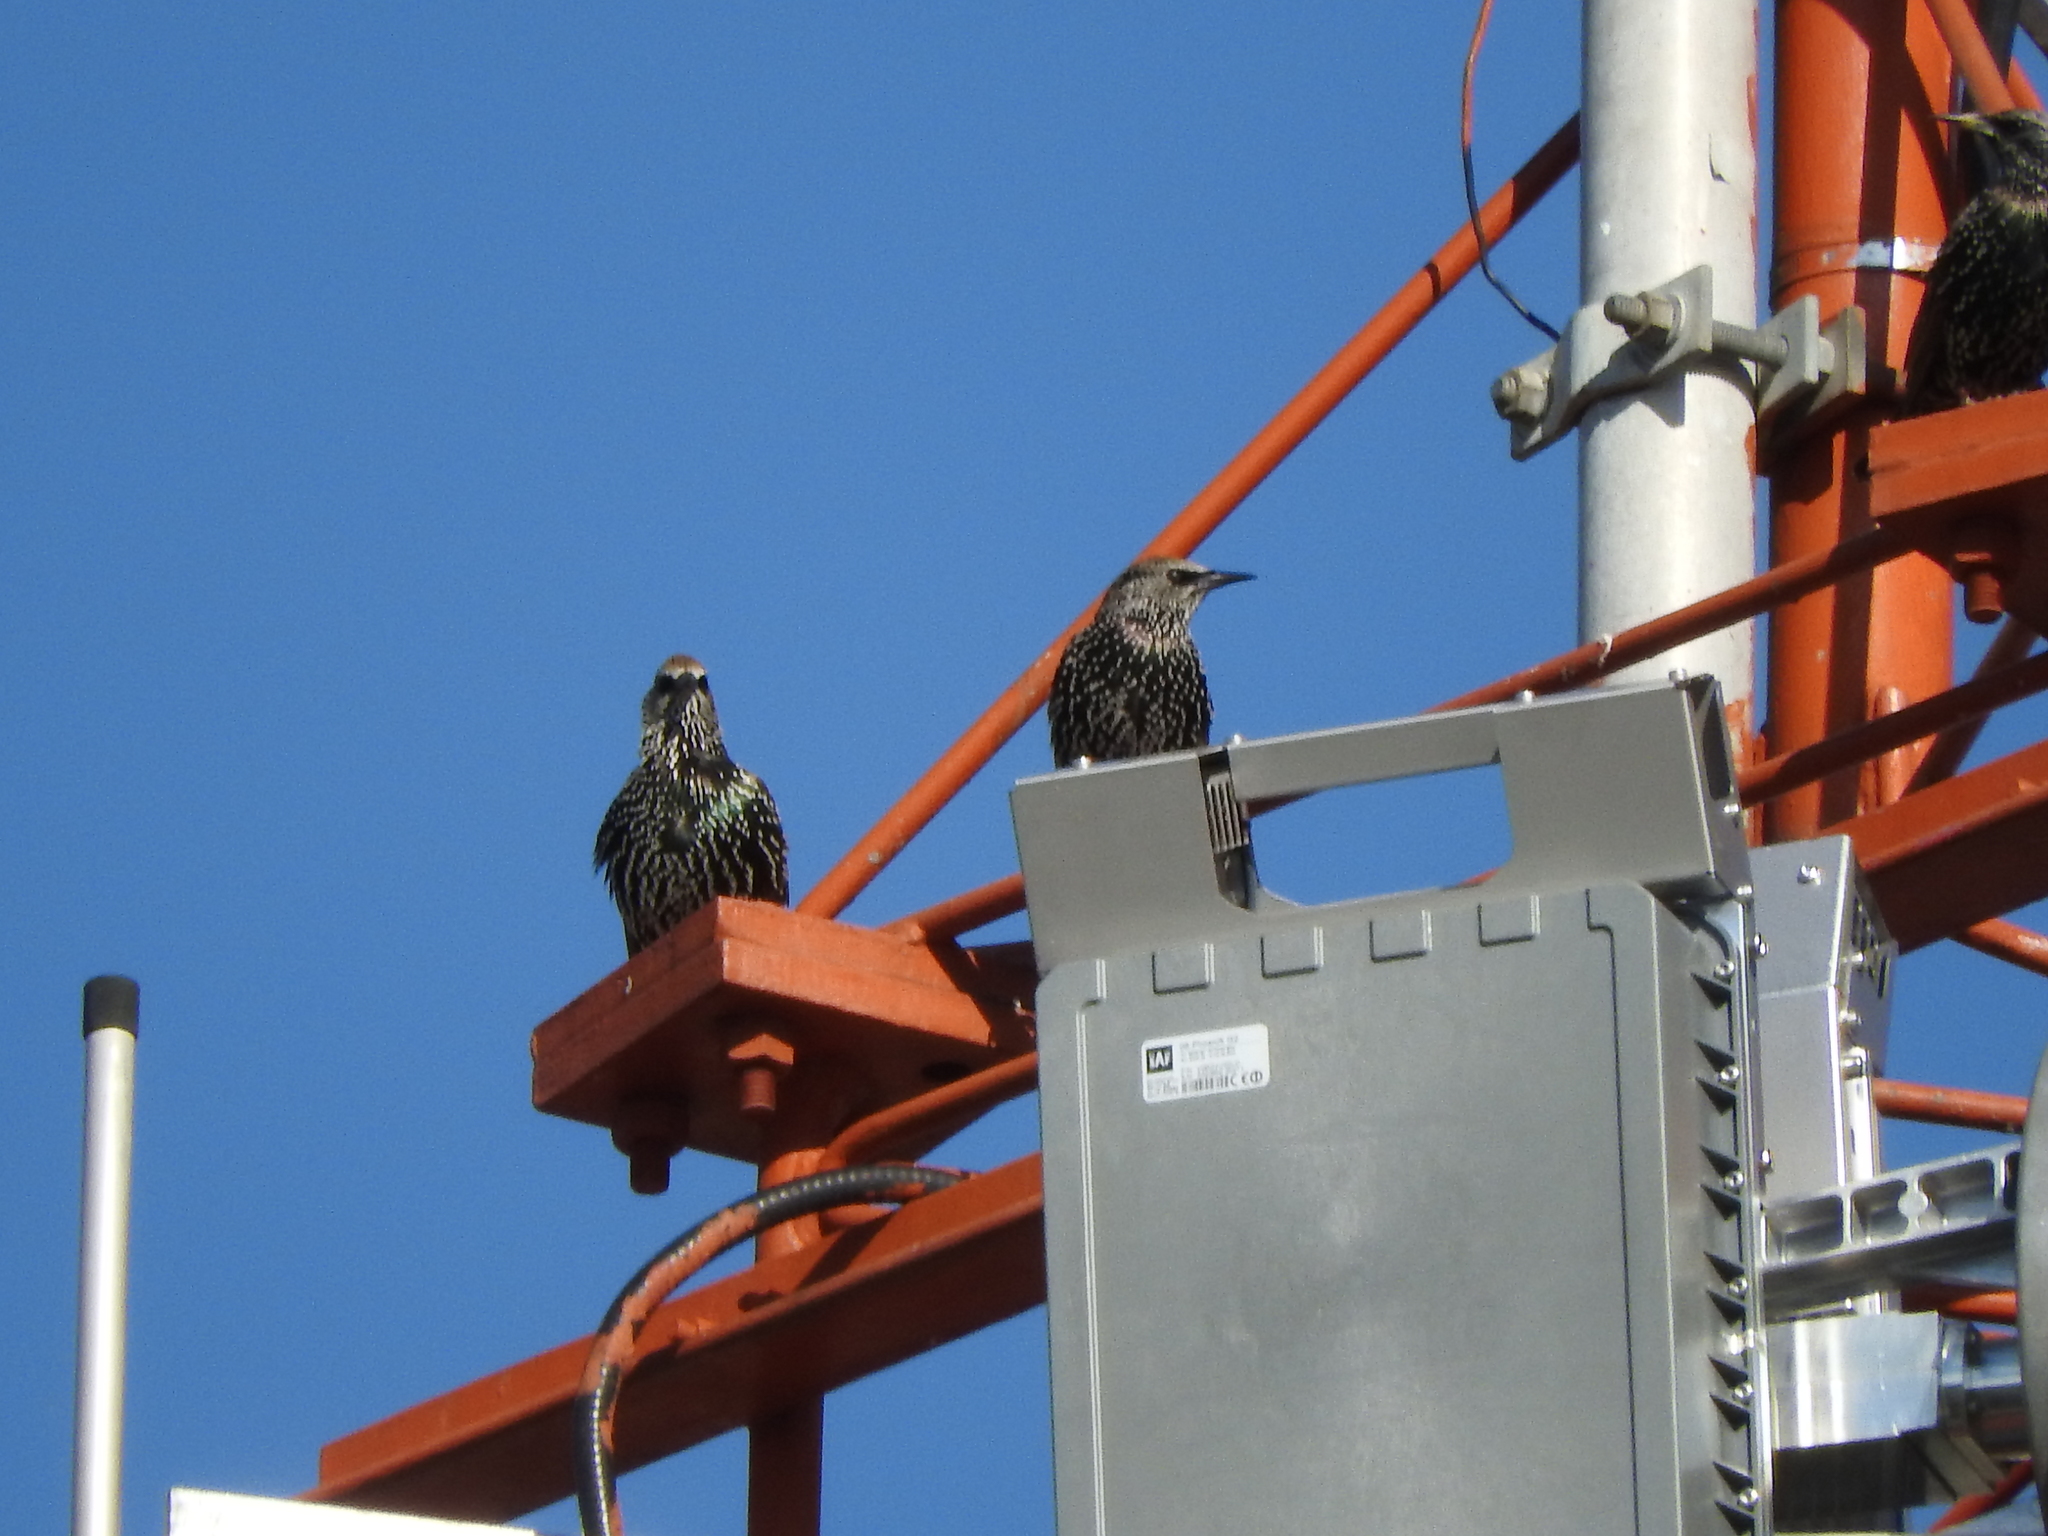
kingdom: Animalia
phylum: Chordata
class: Aves
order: Passeriformes
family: Sturnidae
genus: Sturnus
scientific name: Sturnus vulgaris
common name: Common starling
